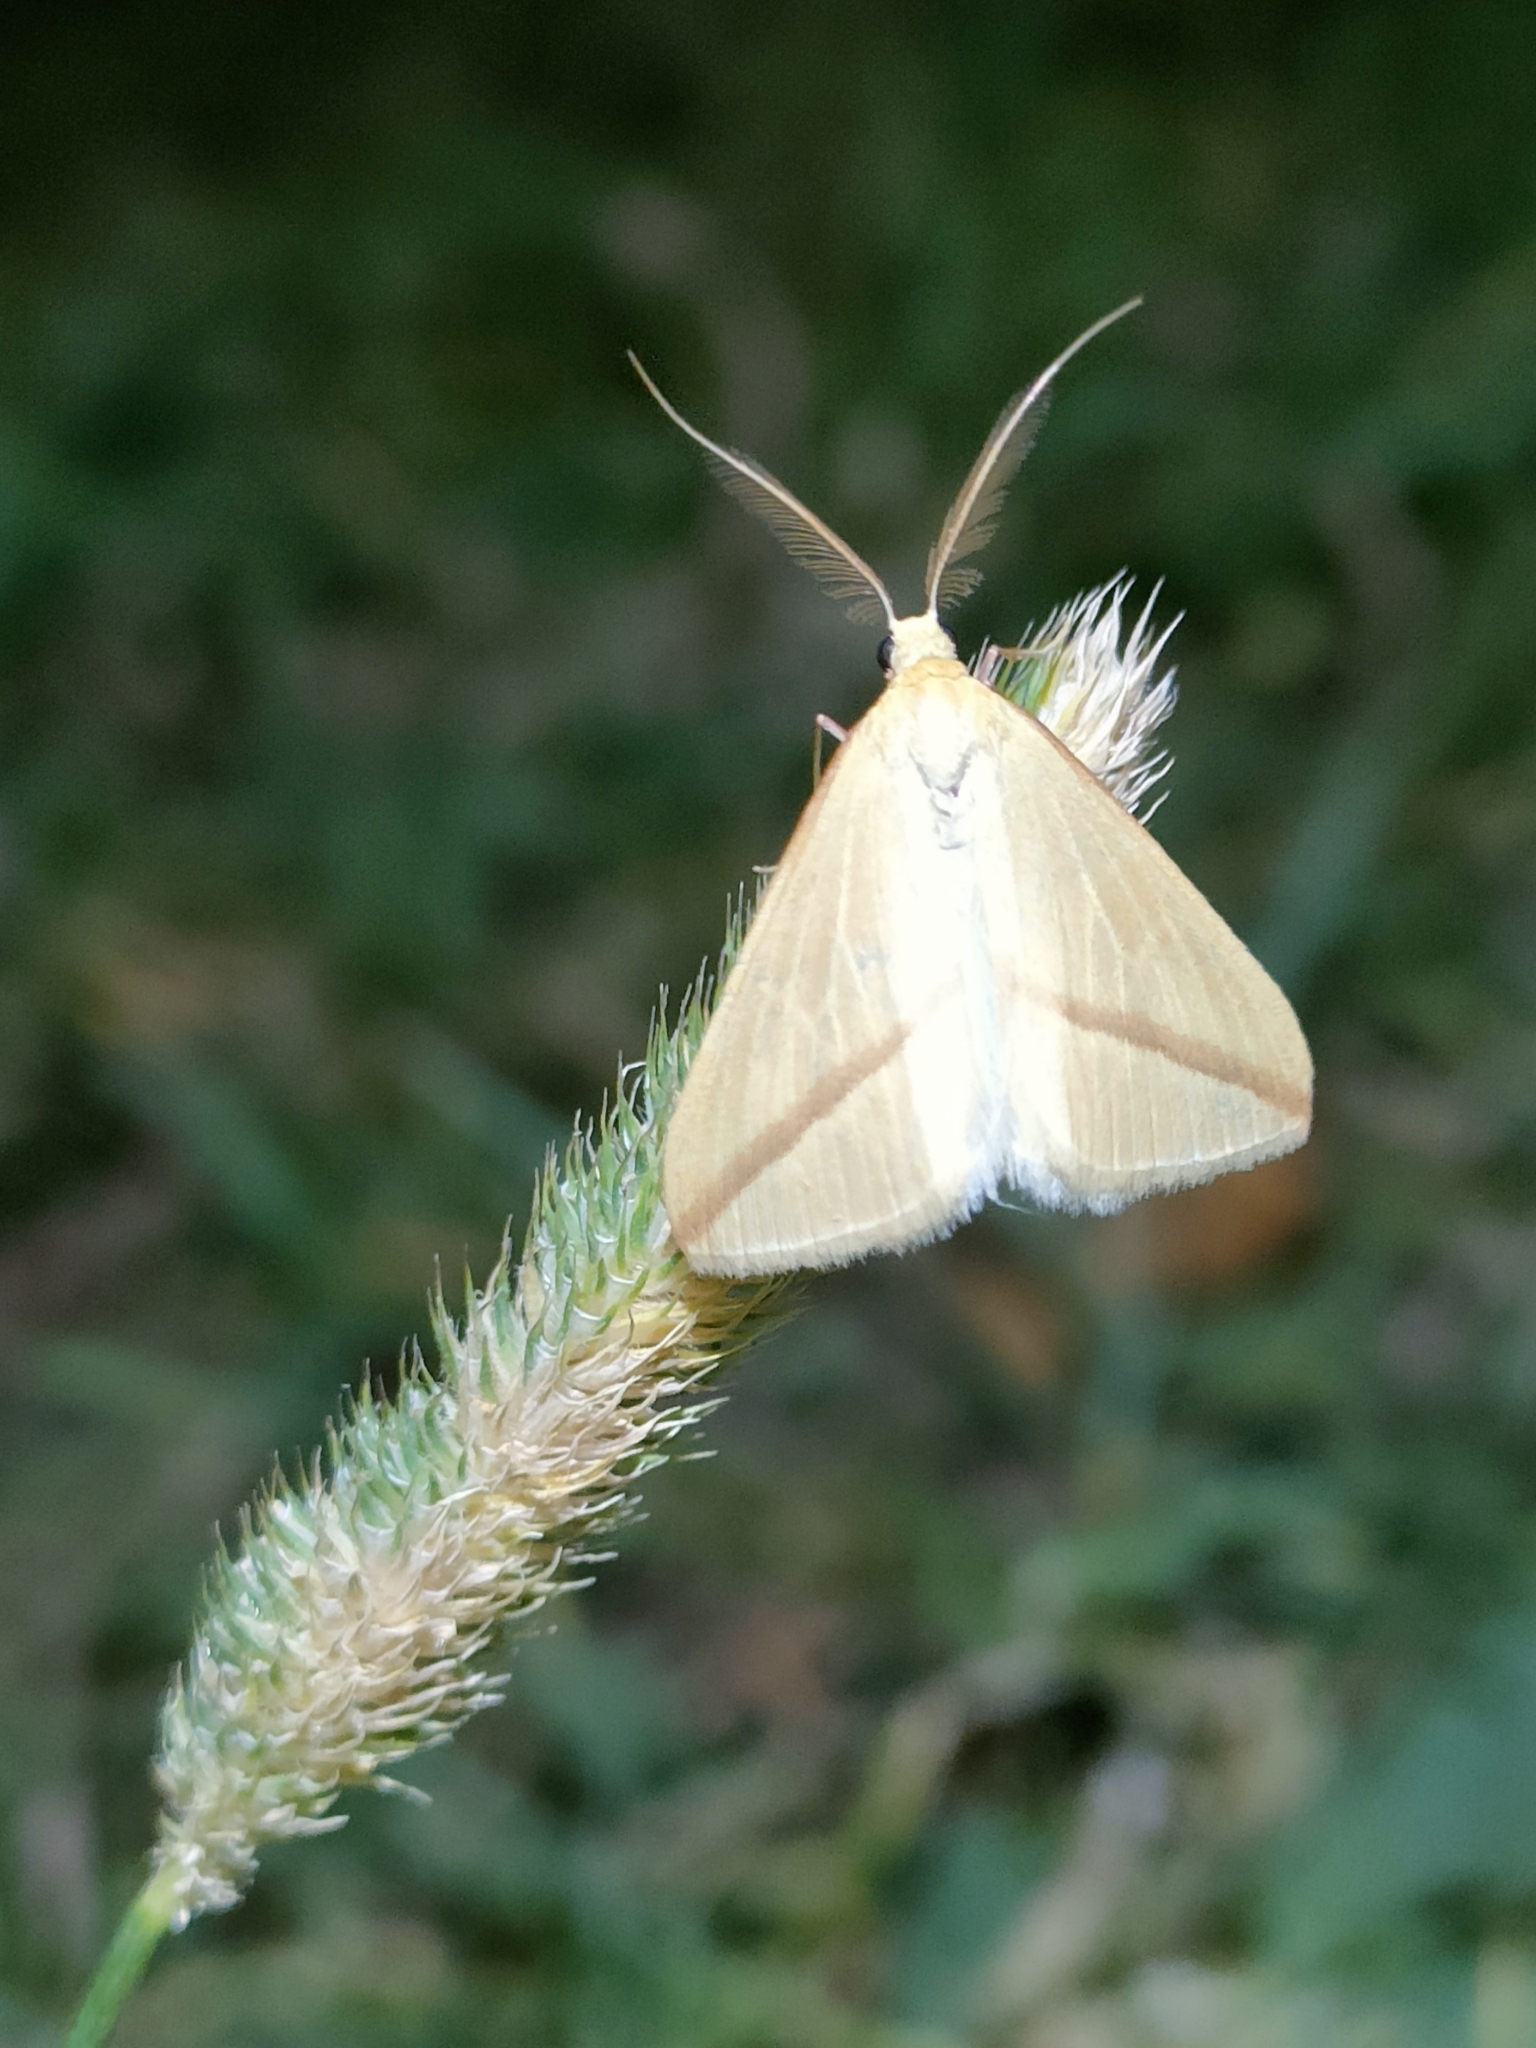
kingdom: Animalia
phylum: Arthropoda
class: Insecta
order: Lepidoptera
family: Geometridae
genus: Rhodometra
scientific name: Rhodometra sacraria
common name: Vestal
